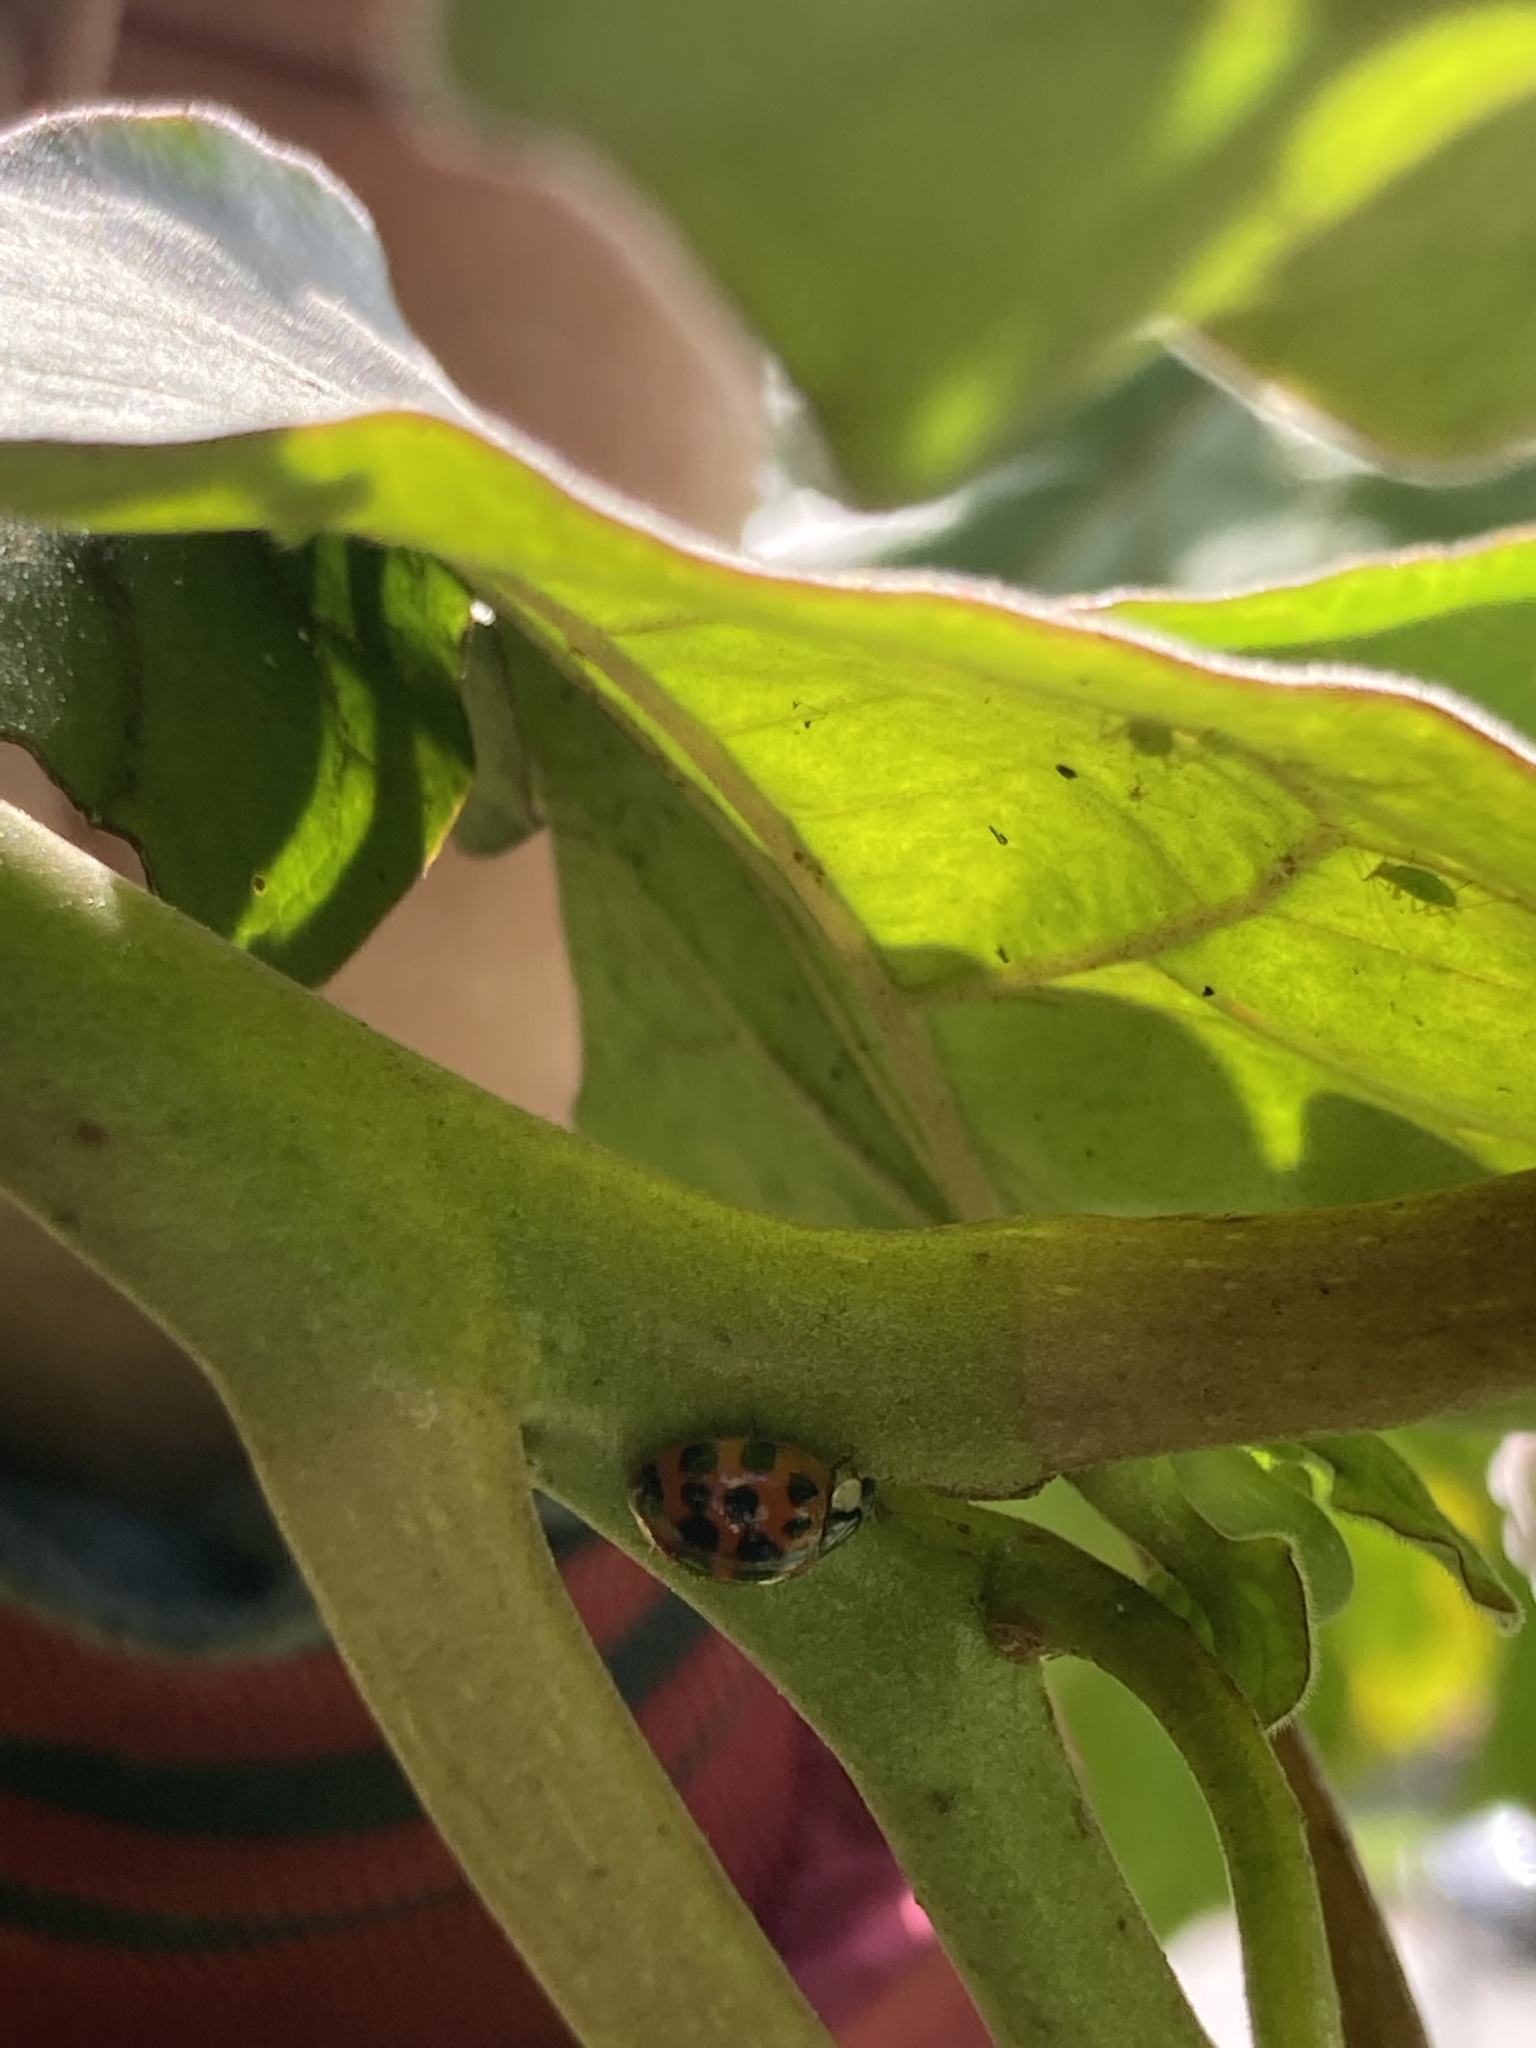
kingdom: Animalia
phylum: Arthropoda
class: Insecta
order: Coleoptera
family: Coccinellidae
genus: Harmonia
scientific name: Harmonia axyridis
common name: Harlequin ladybird
